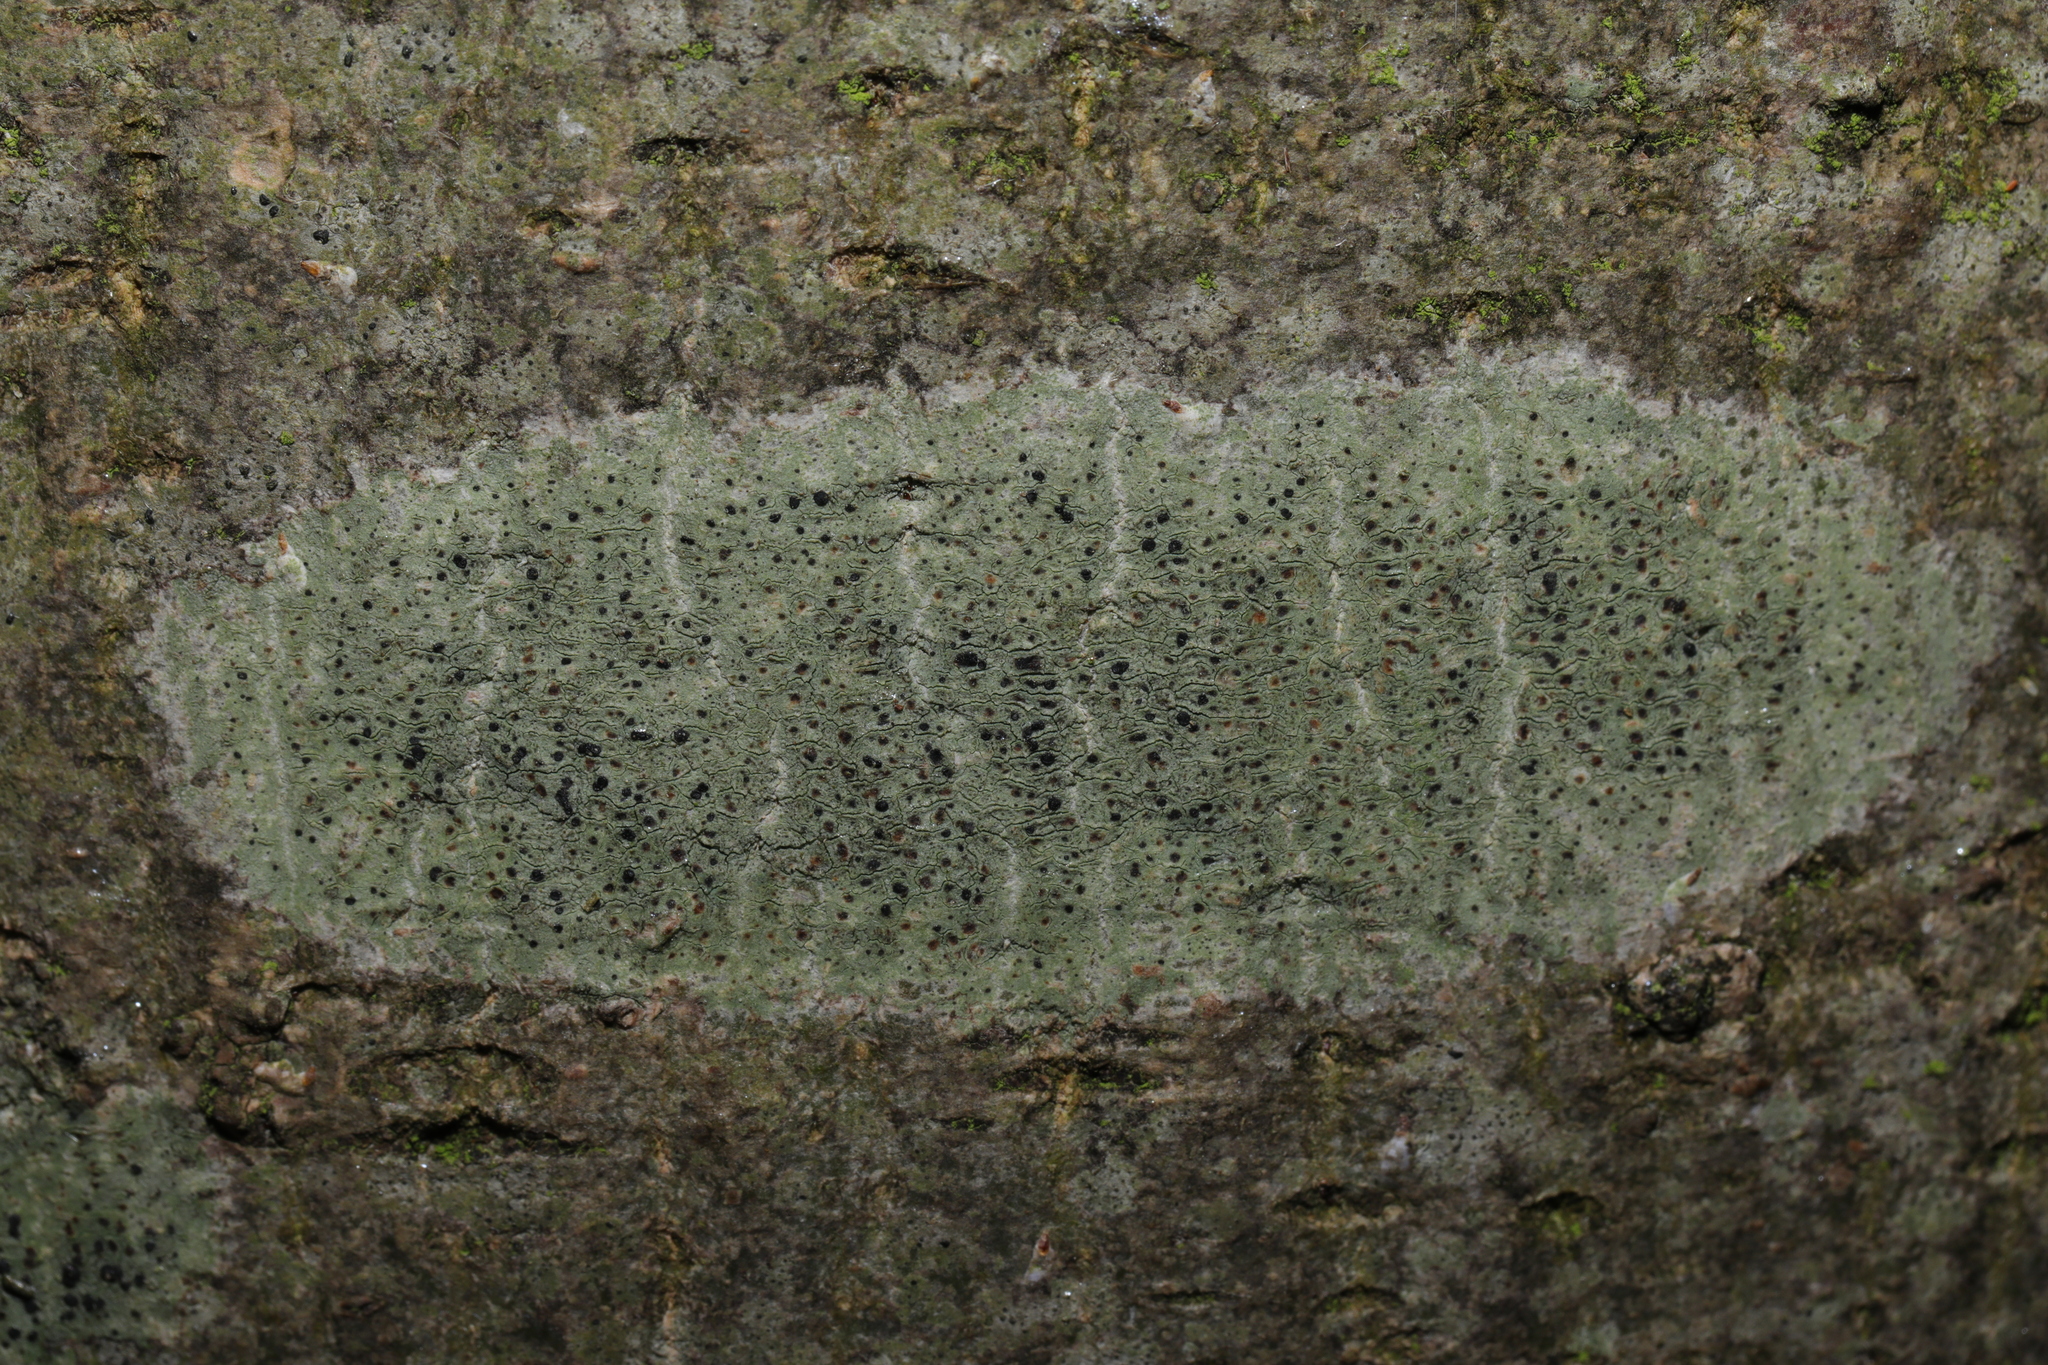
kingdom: Fungi
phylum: Ascomycota
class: Lecanoromycetes
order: Lecanorales
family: Lecanoraceae
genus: Lecidella
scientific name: Lecidella elaeochroma
